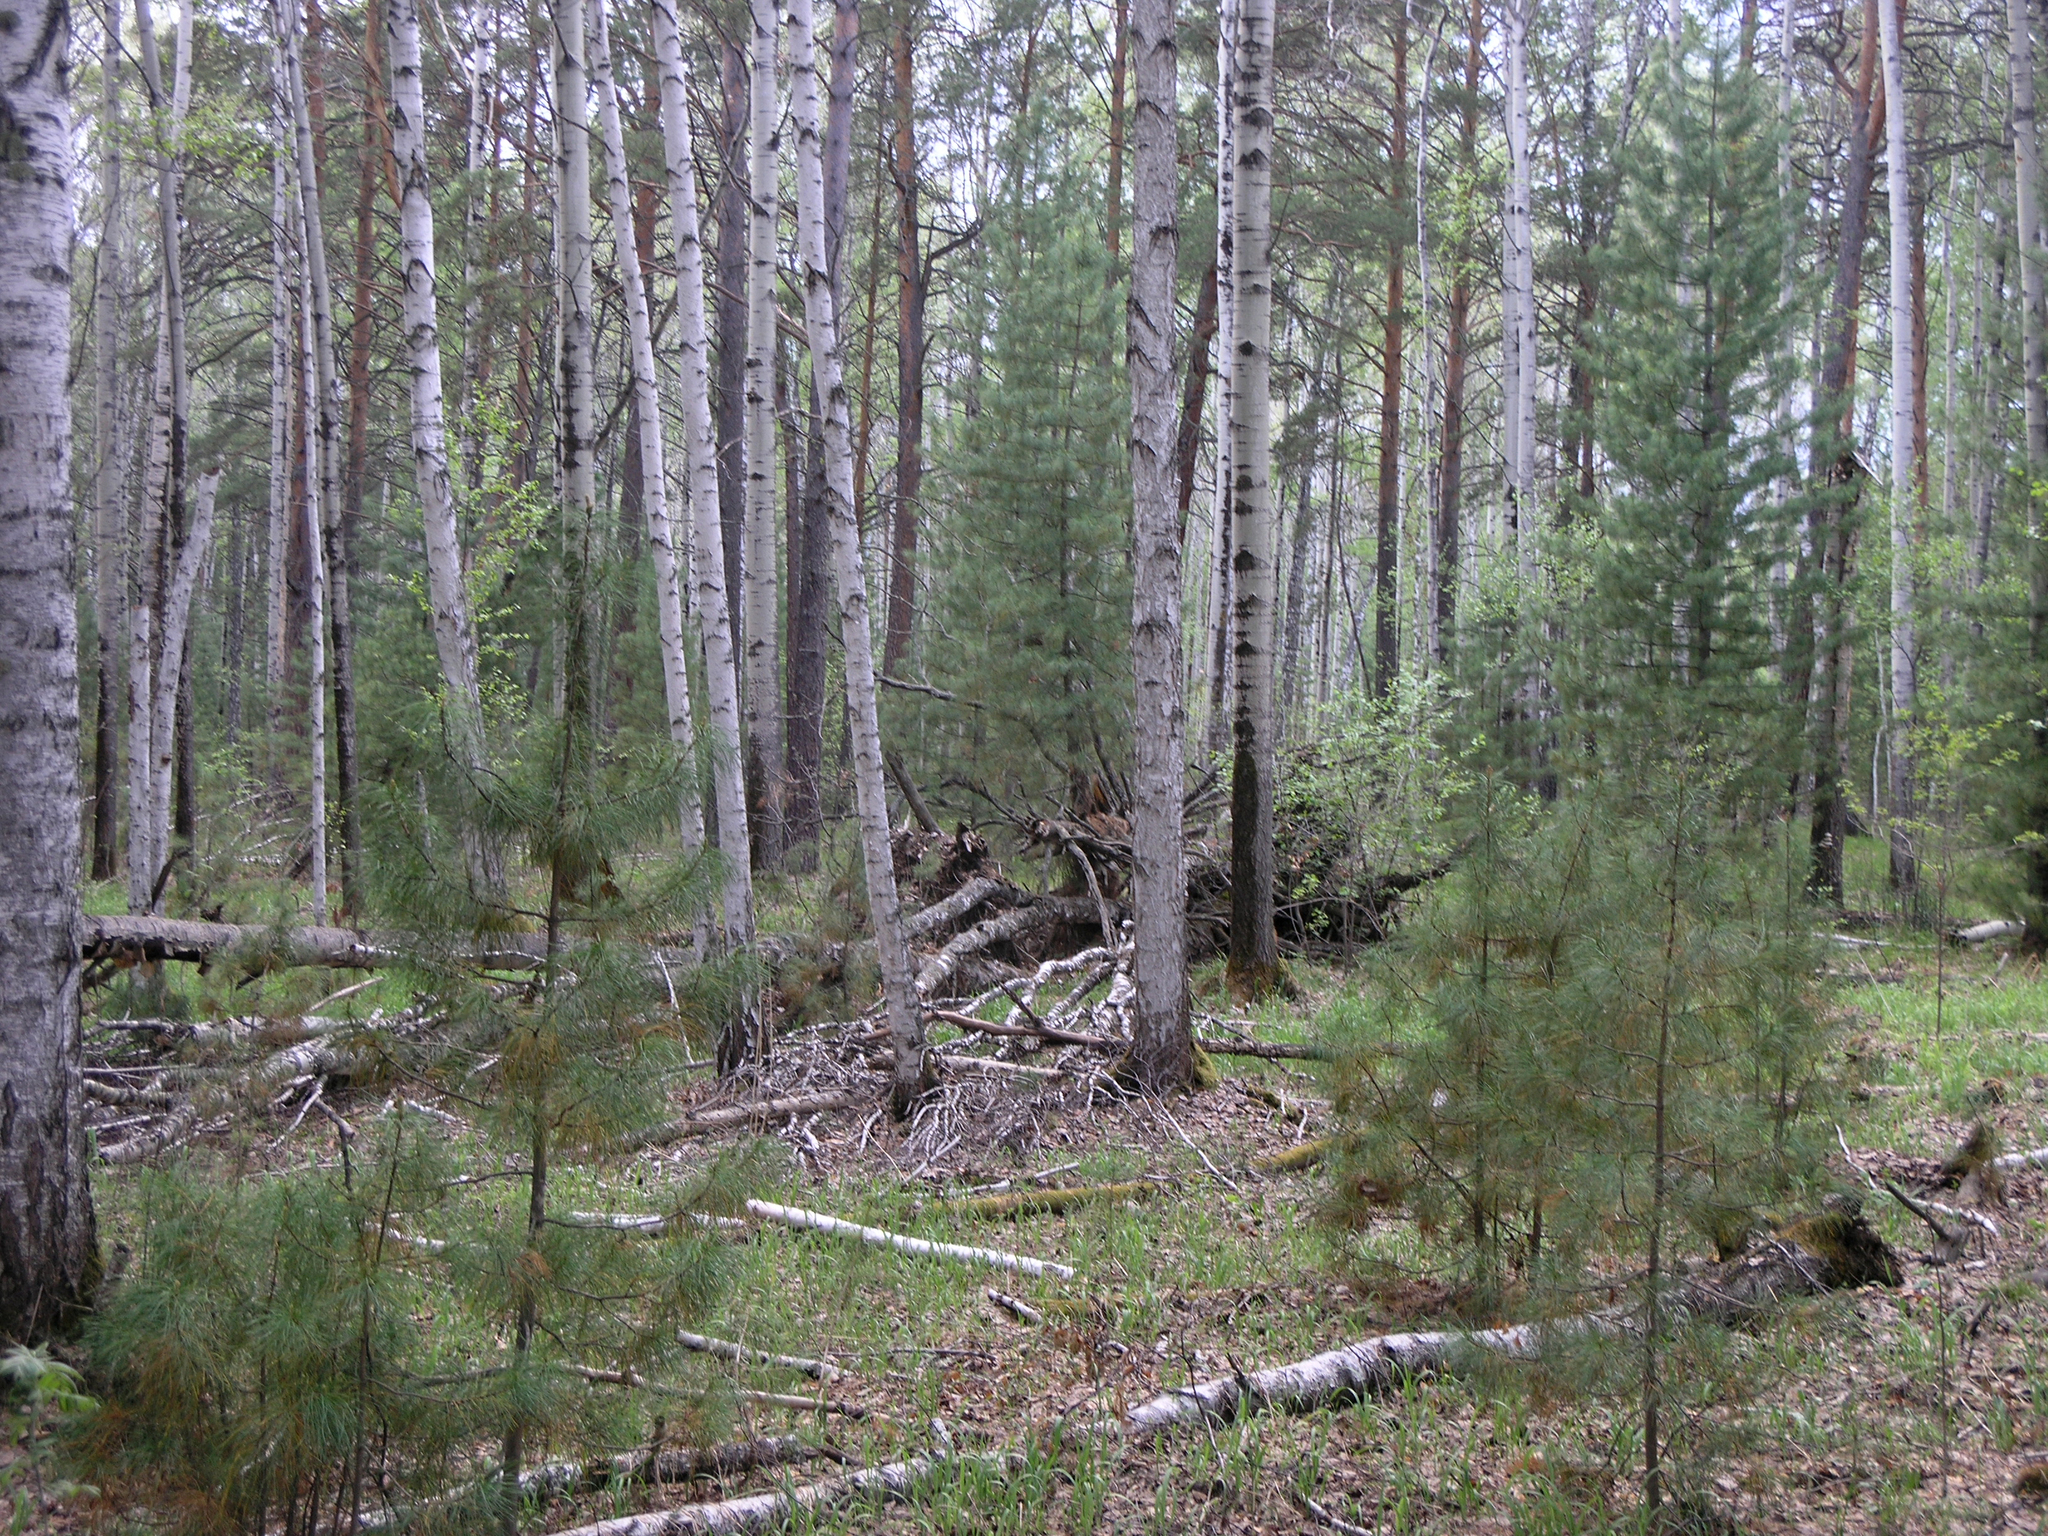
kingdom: Plantae
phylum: Tracheophyta
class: Pinopsida
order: Pinales
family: Pinaceae
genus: Pinus
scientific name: Pinus sibirica
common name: Siberian pine
